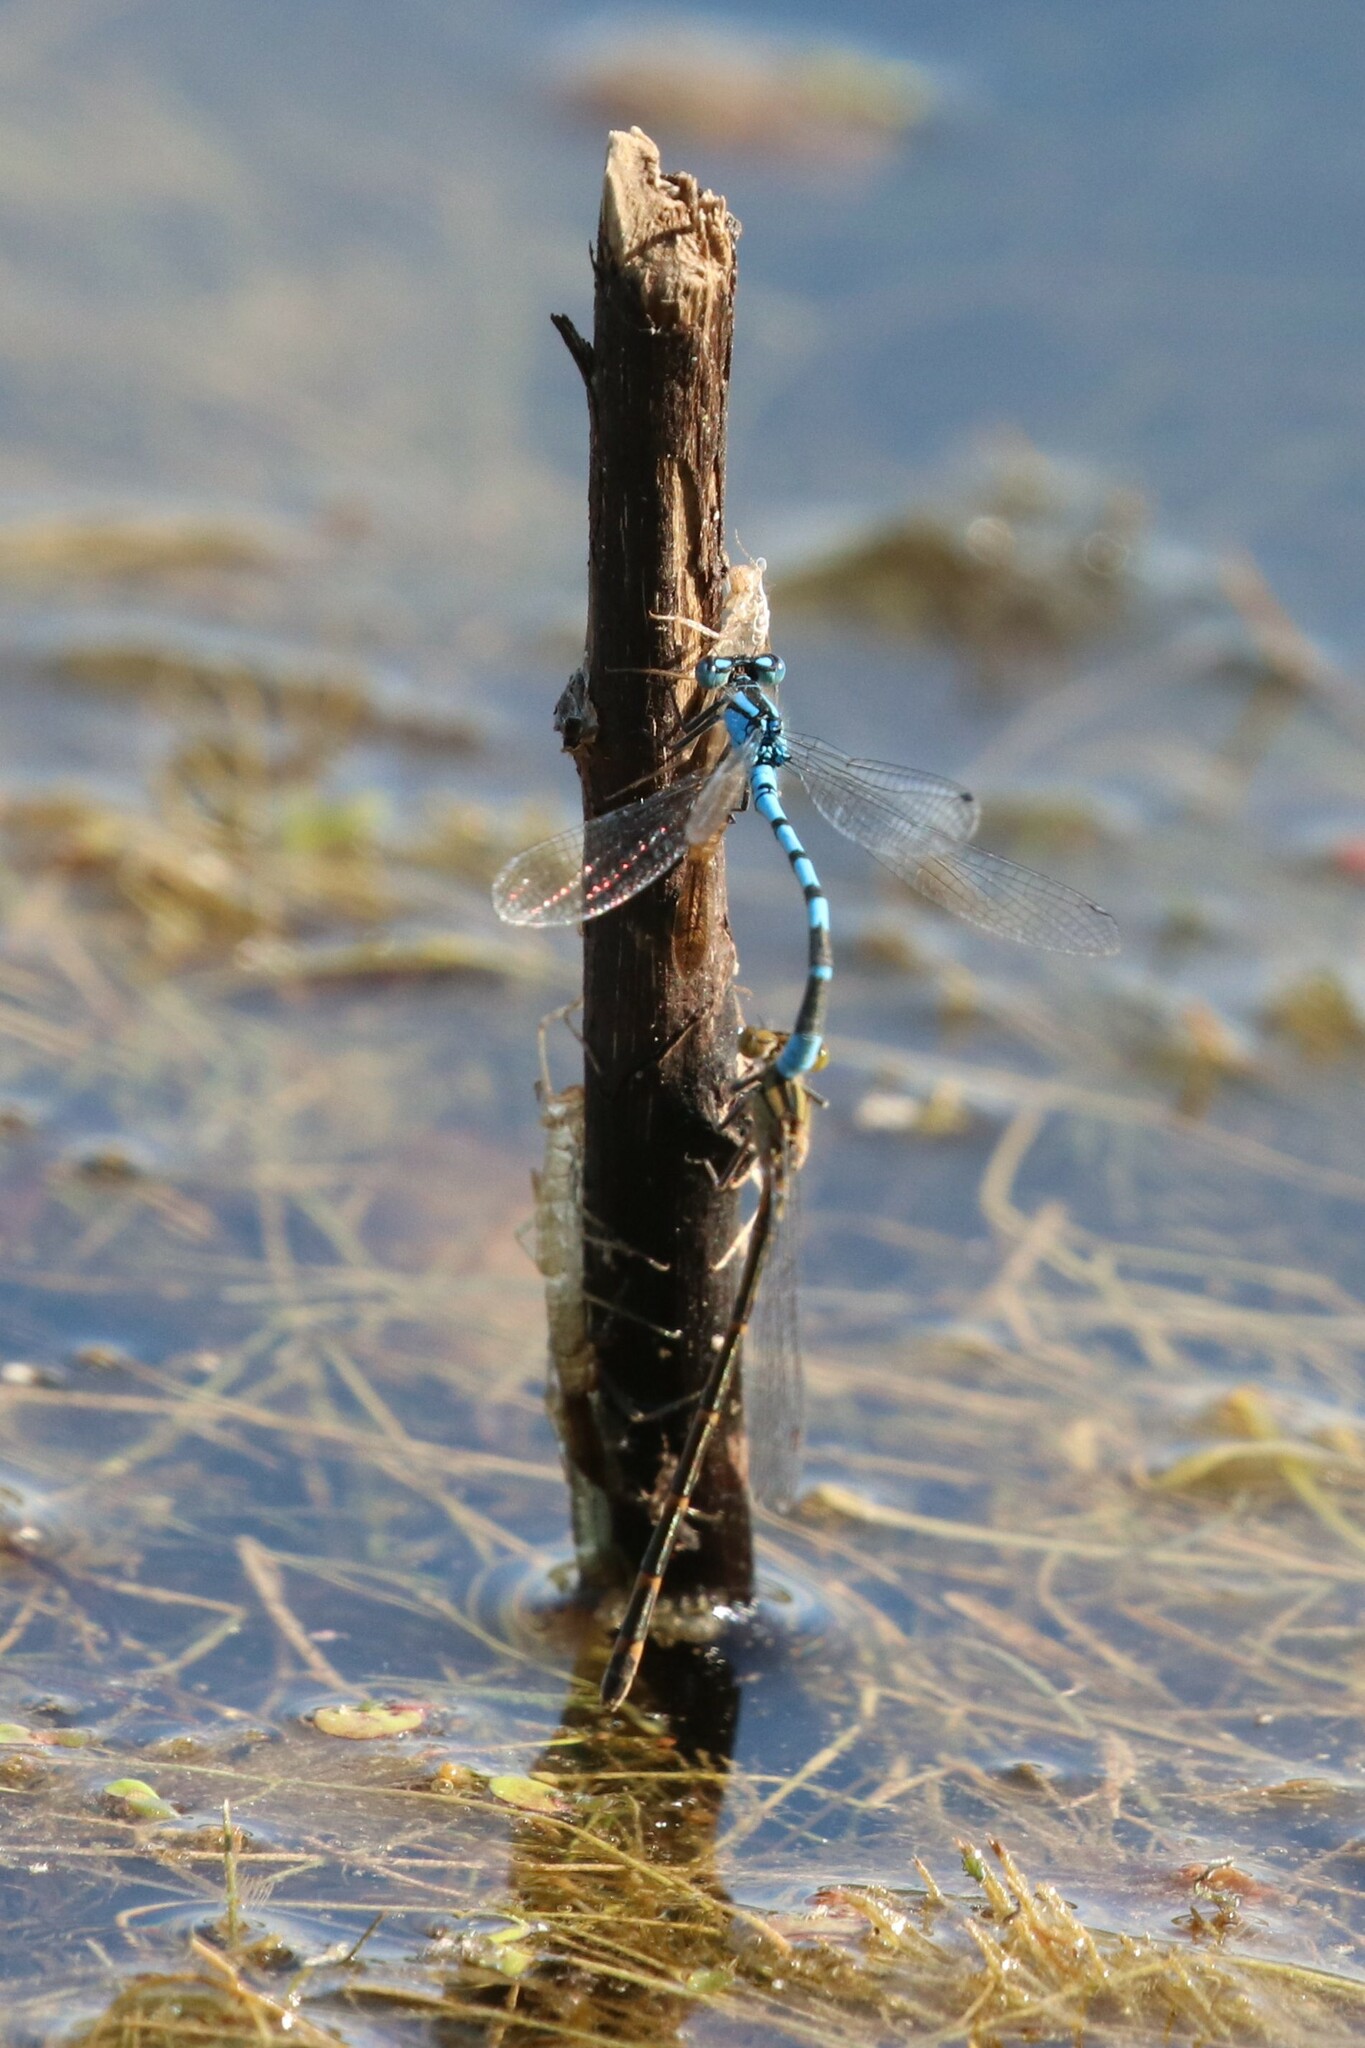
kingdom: Animalia
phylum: Arthropoda
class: Insecta
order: Odonata
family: Coenagrionidae
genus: Enallagma
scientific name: Enallagma cyathigerum
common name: Common blue damselfly
